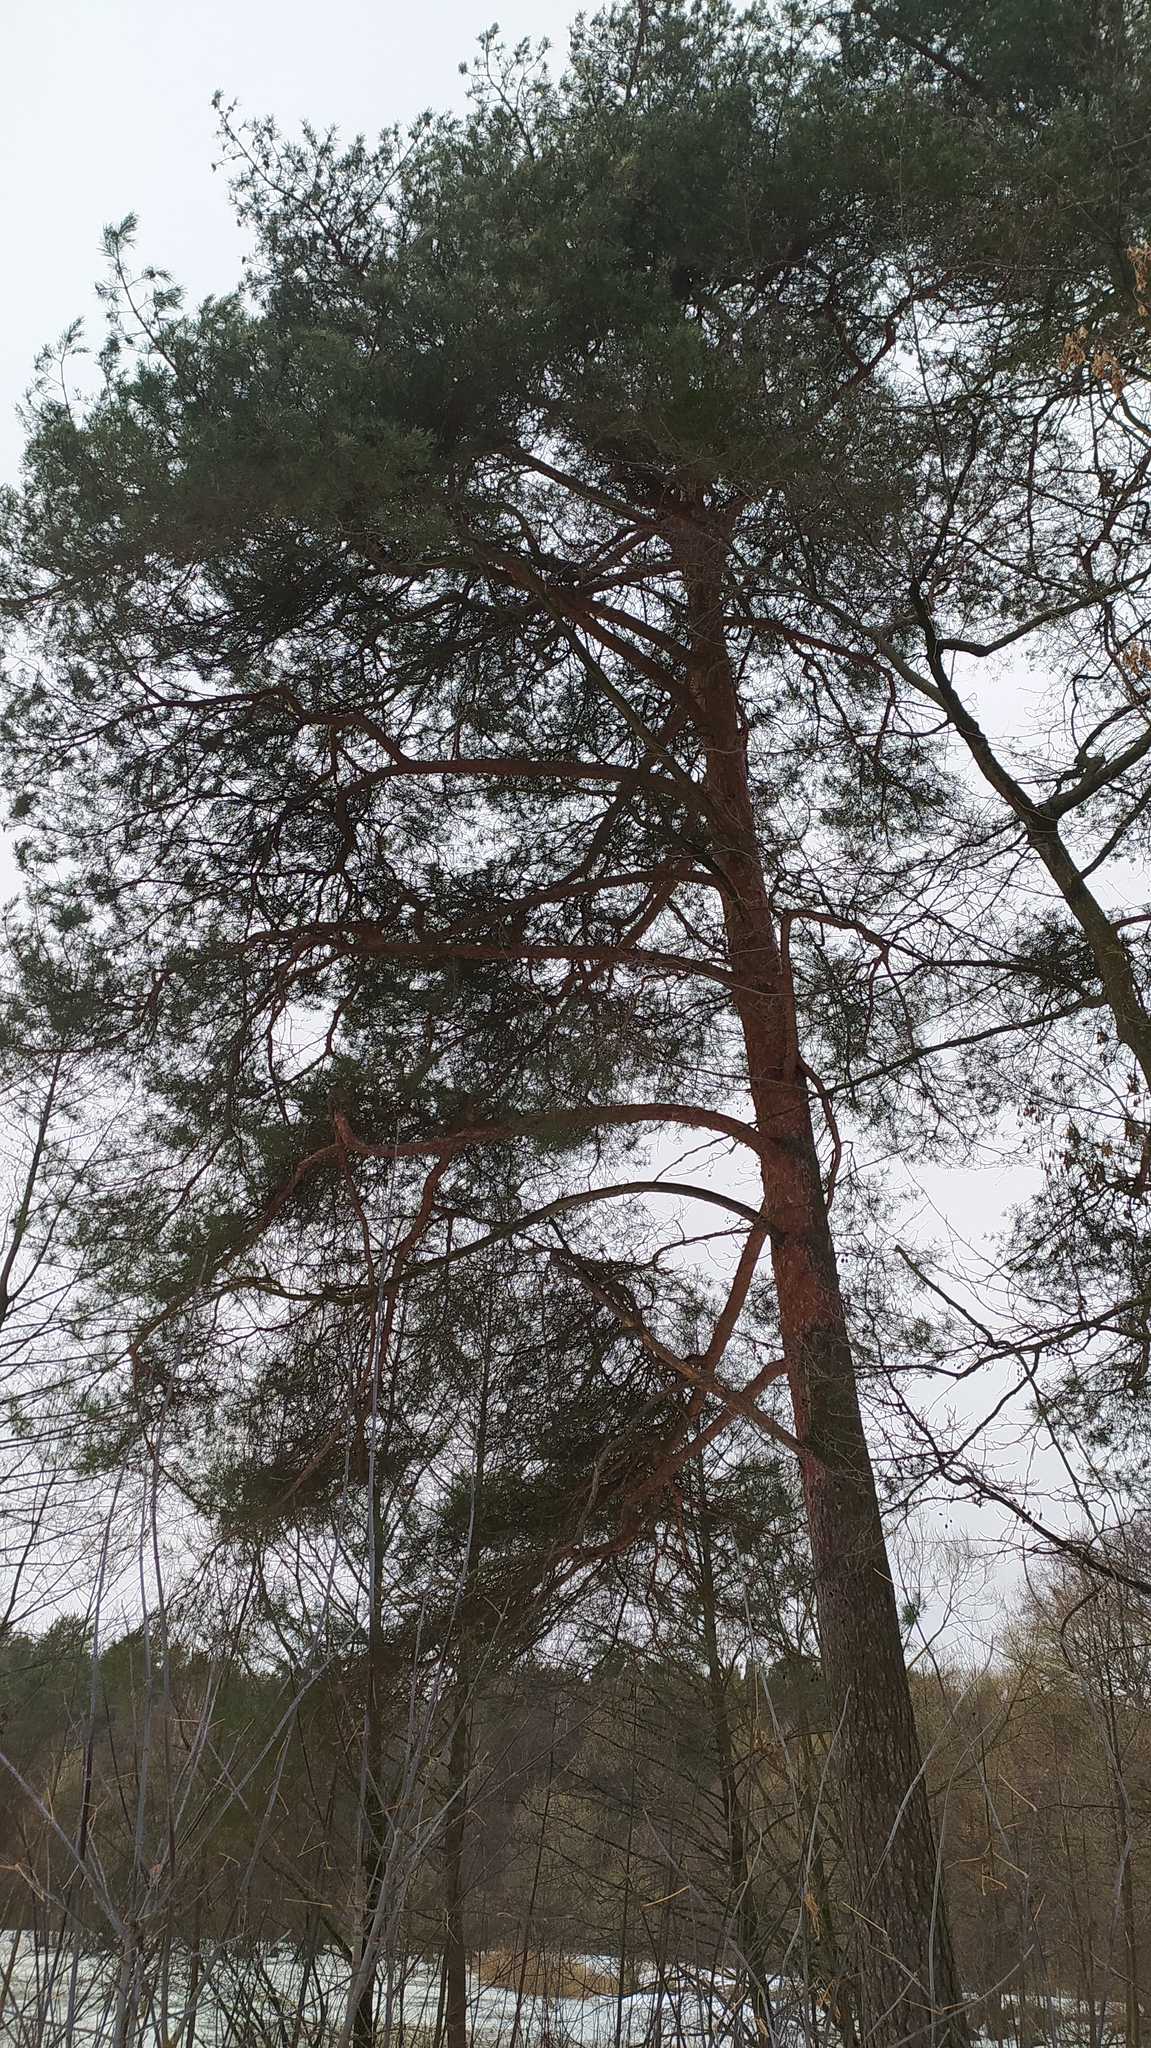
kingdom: Plantae
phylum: Tracheophyta
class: Pinopsida
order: Pinales
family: Pinaceae
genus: Pinus
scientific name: Pinus sylvestris
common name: Scots pine
